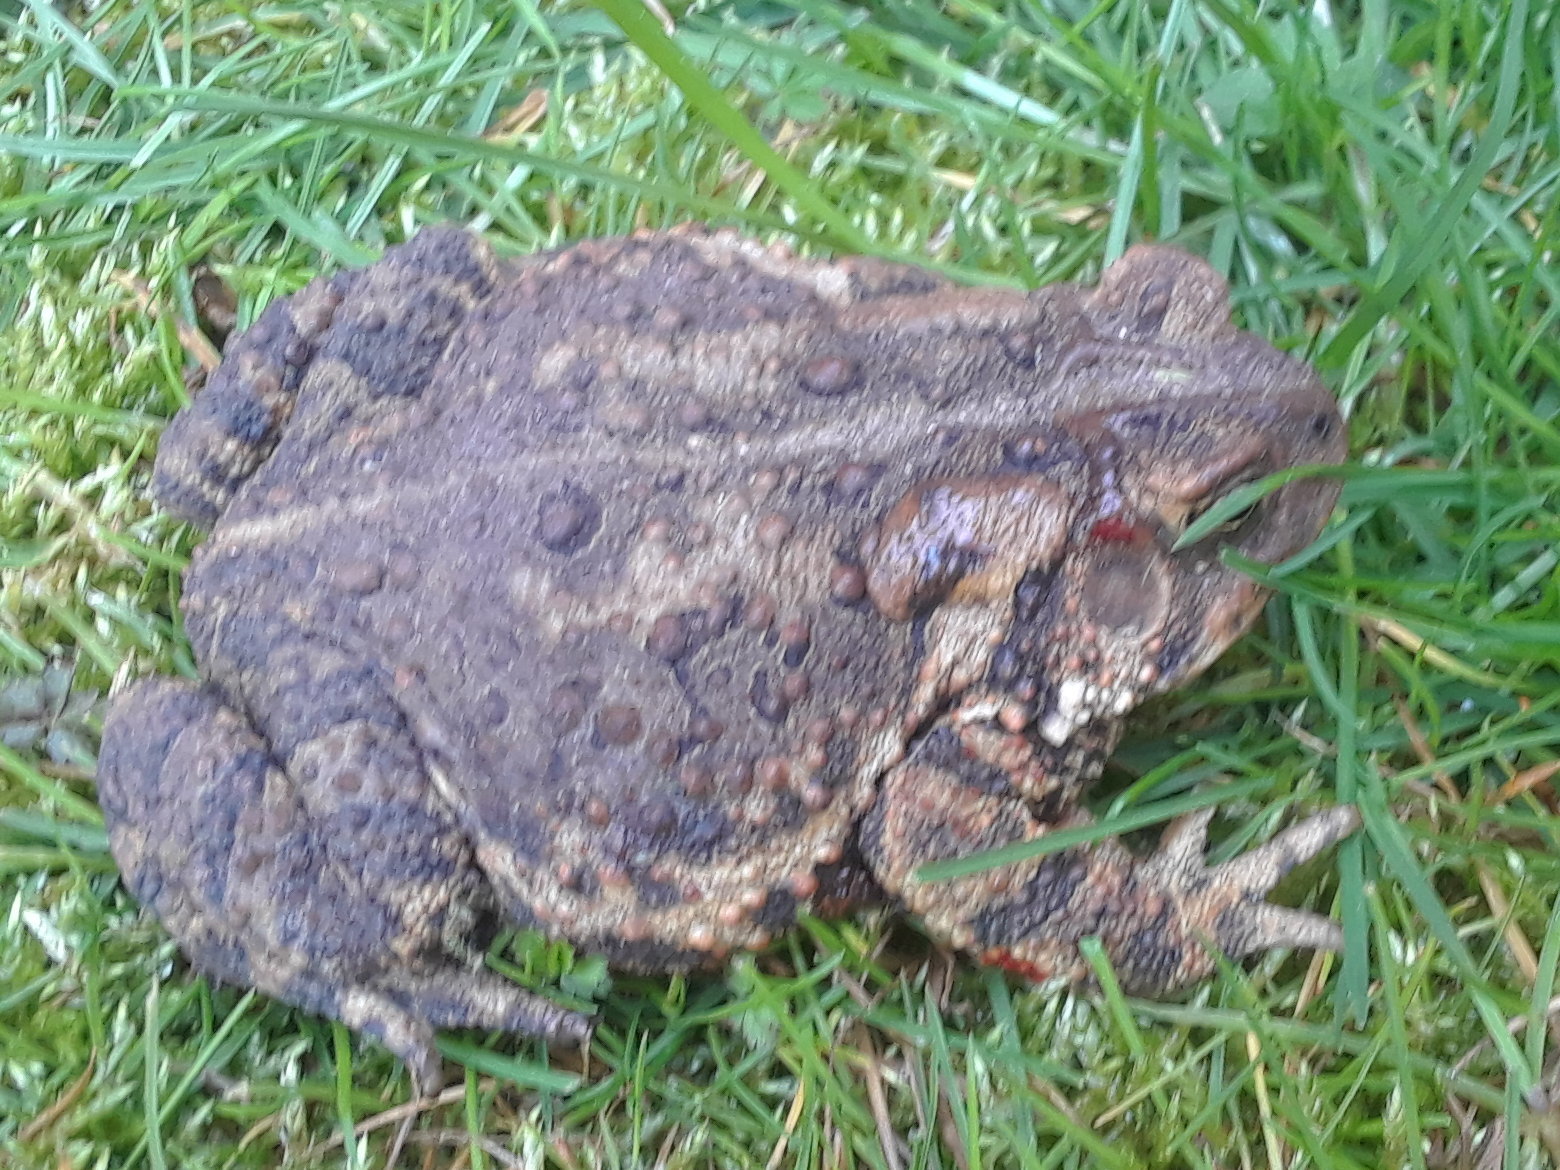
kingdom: Animalia
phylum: Chordata
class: Amphibia
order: Anura
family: Bufonidae
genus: Anaxyrus
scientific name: Anaxyrus americanus
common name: American toad
